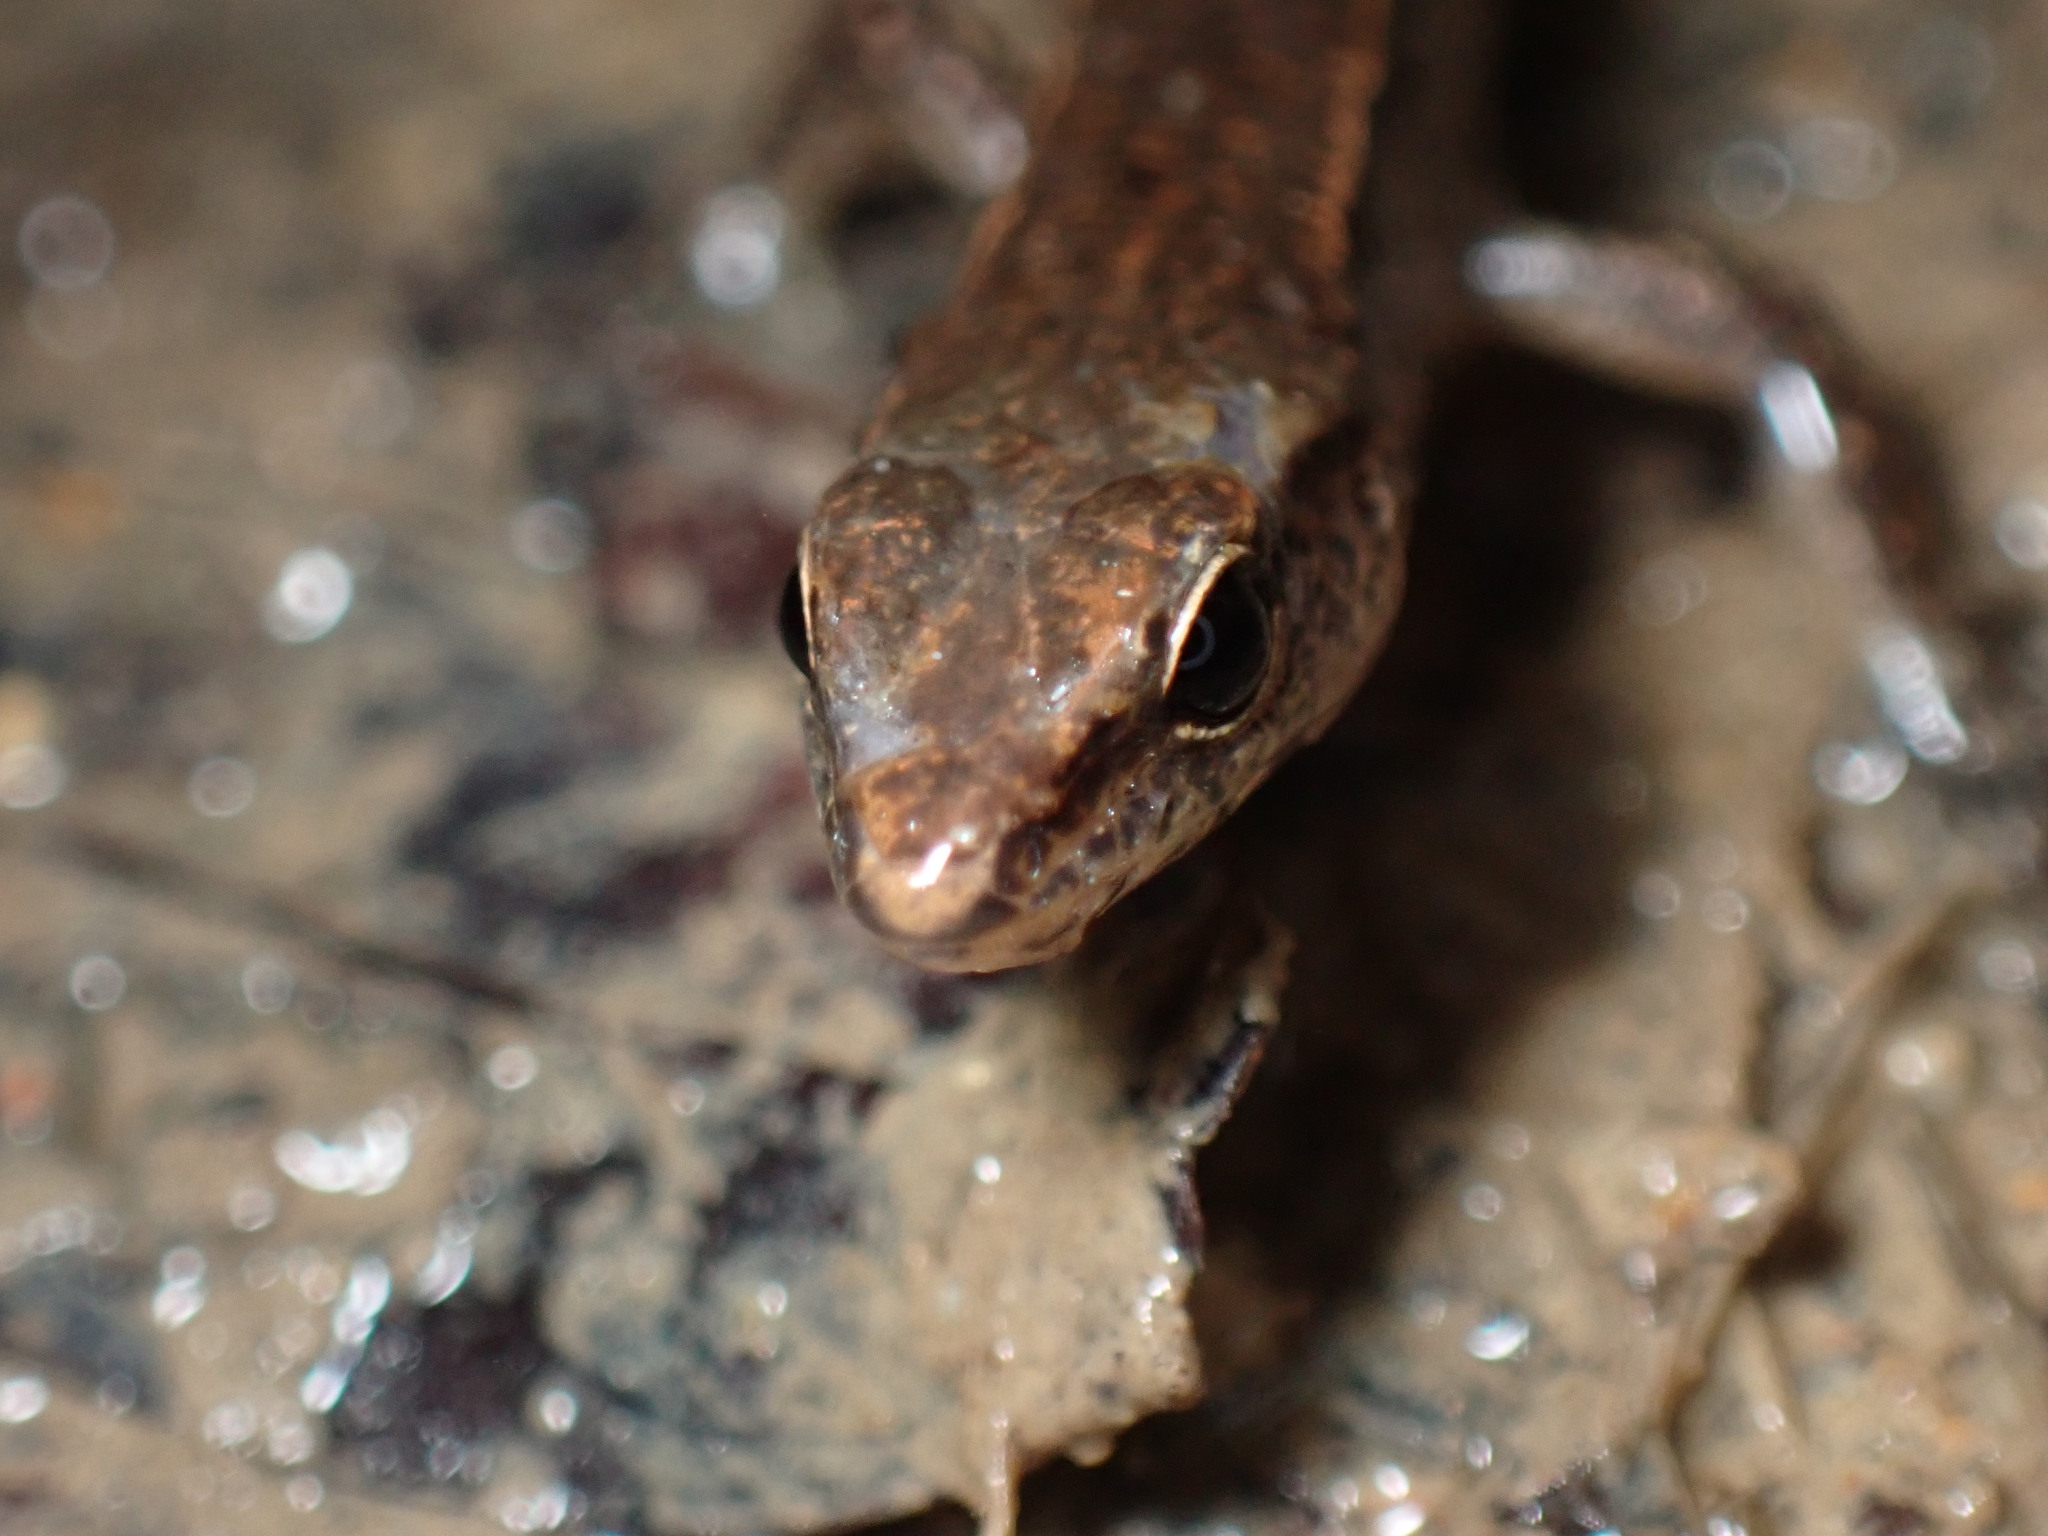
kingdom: Animalia
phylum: Chordata
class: Squamata
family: Scincidae
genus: Scincella
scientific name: Scincella modesta
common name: Modest ground skink
